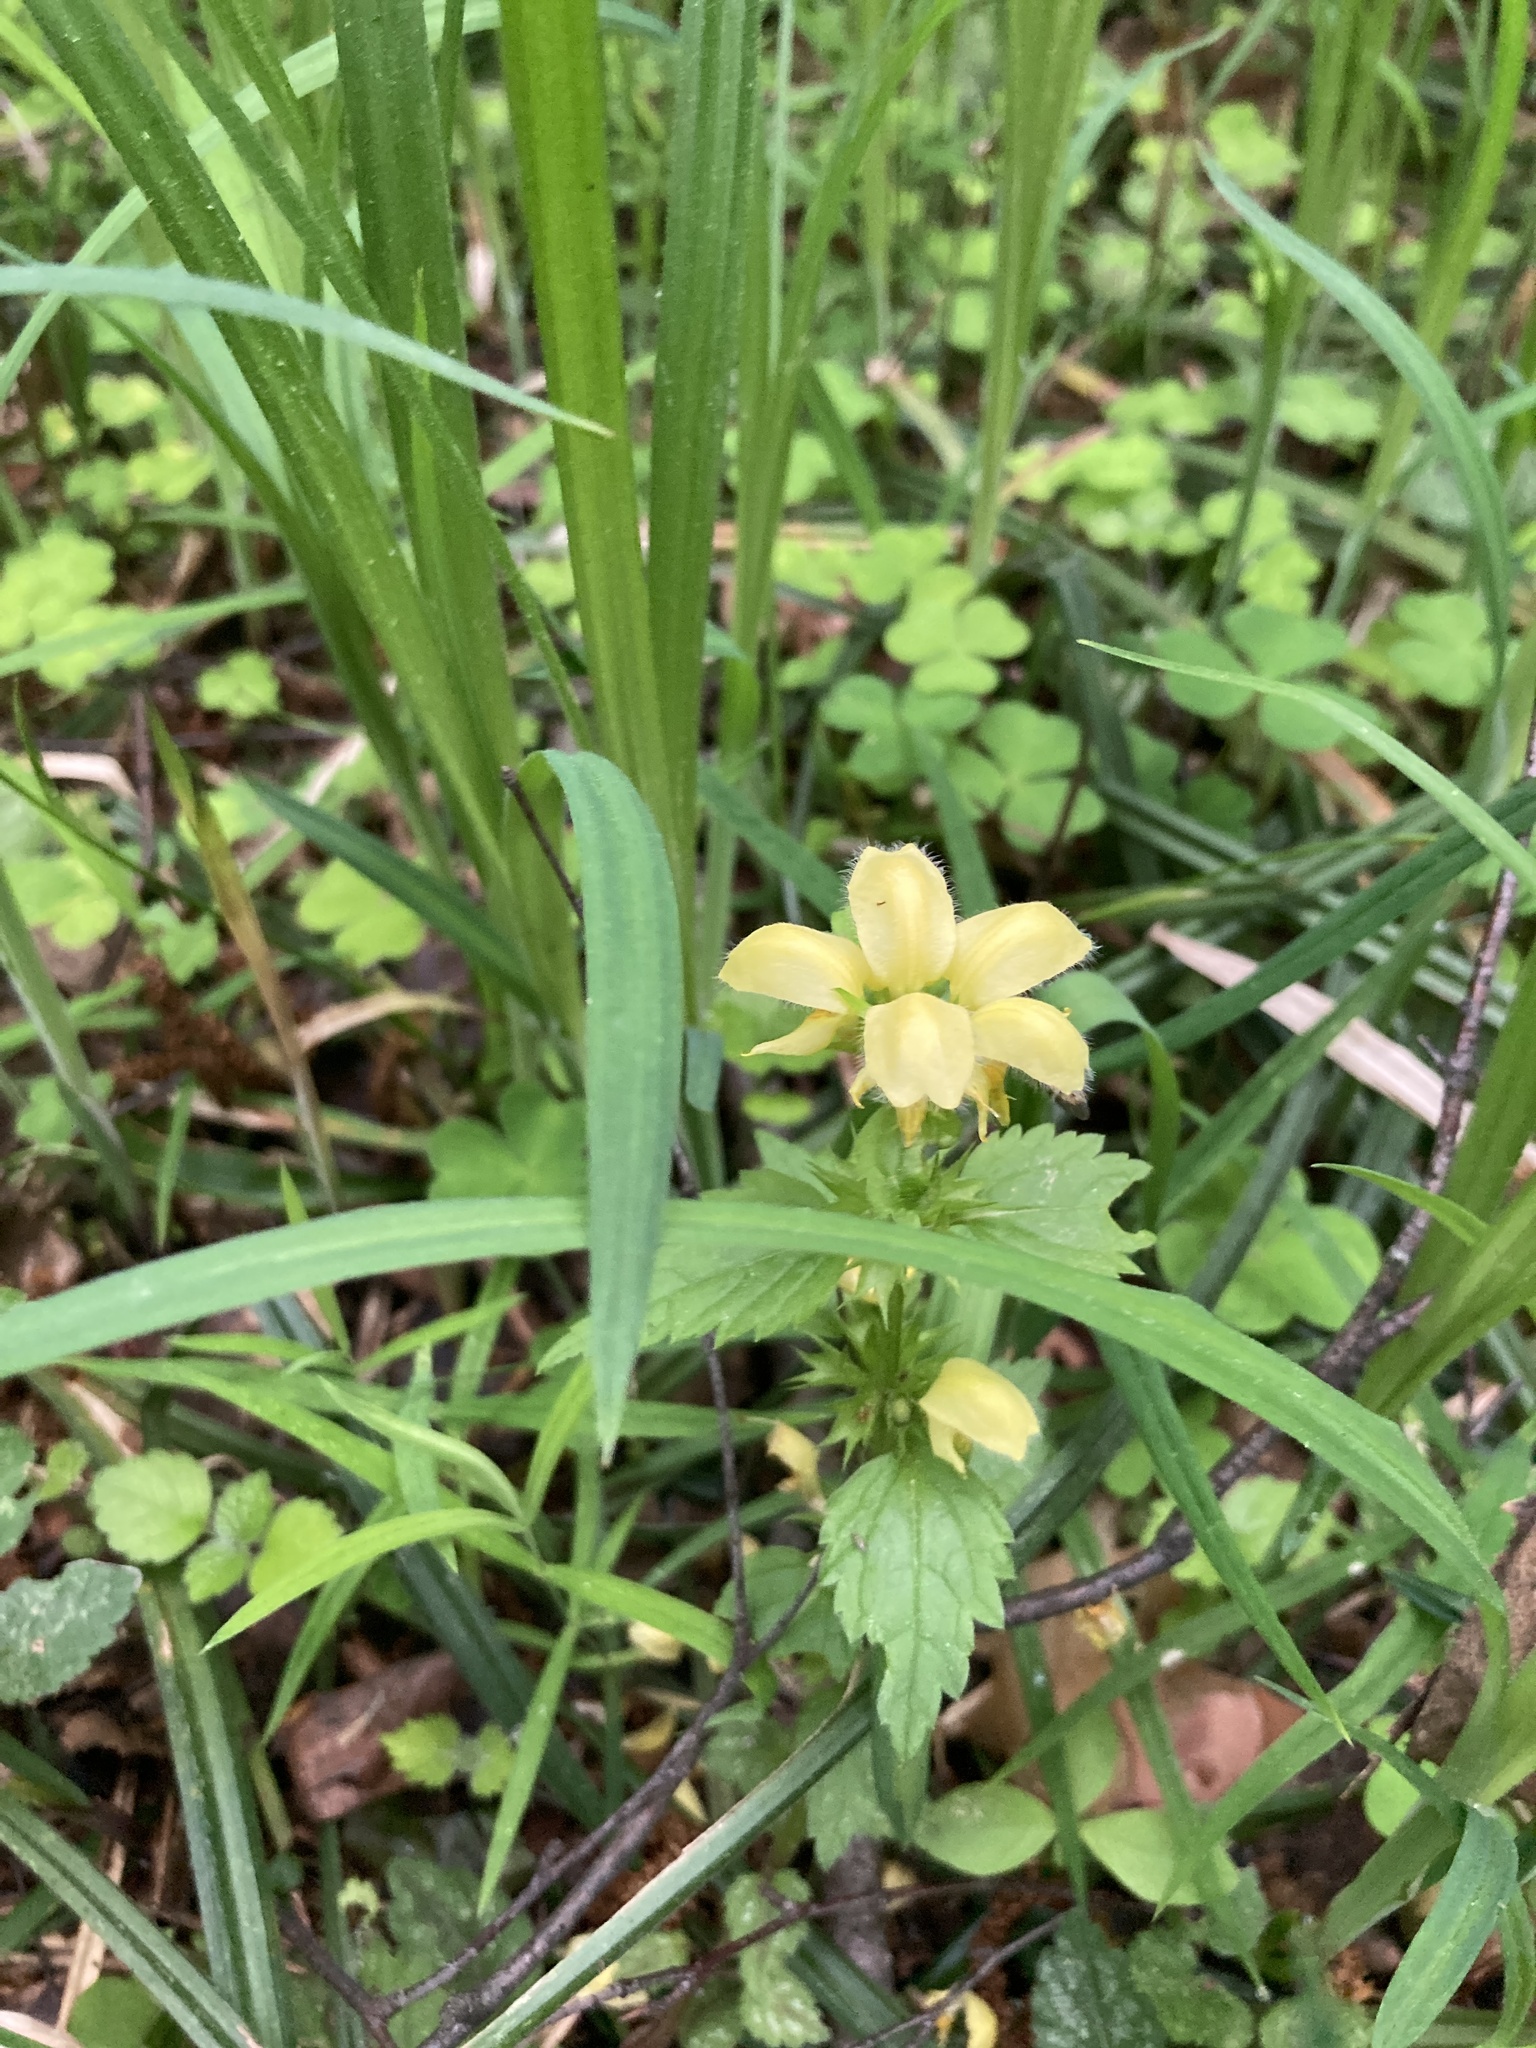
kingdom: Plantae
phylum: Tracheophyta
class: Magnoliopsida
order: Lamiales
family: Lamiaceae
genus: Lamium
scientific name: Lamium galeobdolon
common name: Yellow archangel
